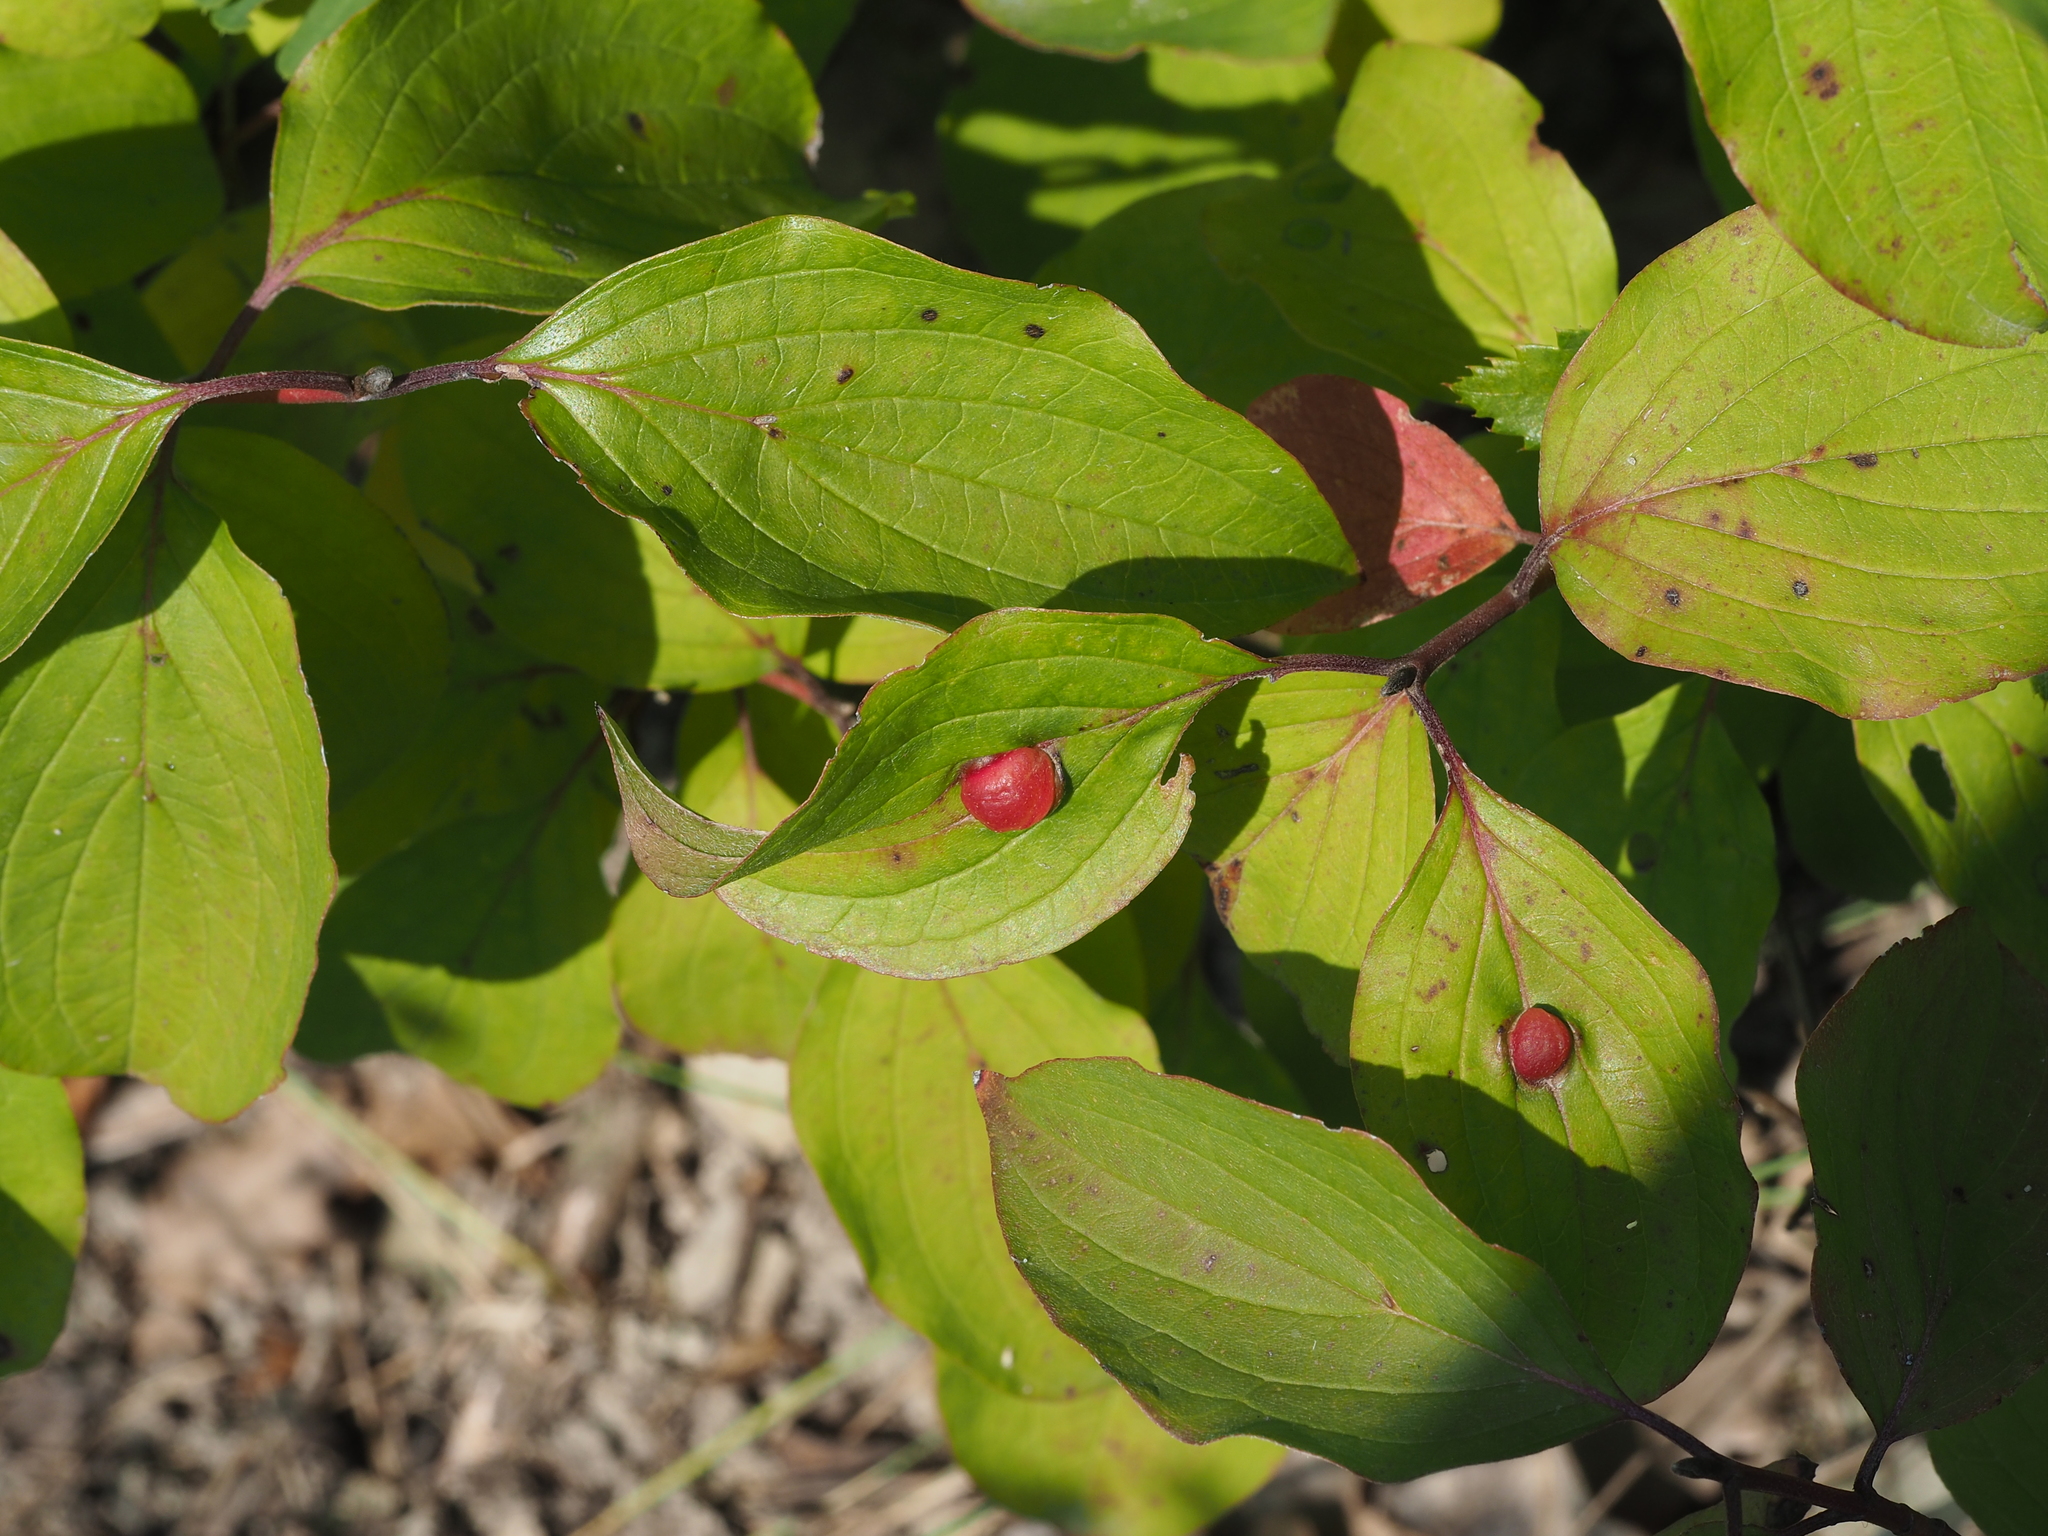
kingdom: Animalia
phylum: Arthropoda
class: Insecta
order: Diptera
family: Cecidomyiidae
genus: Craneiobia
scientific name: Craneiobia corni
